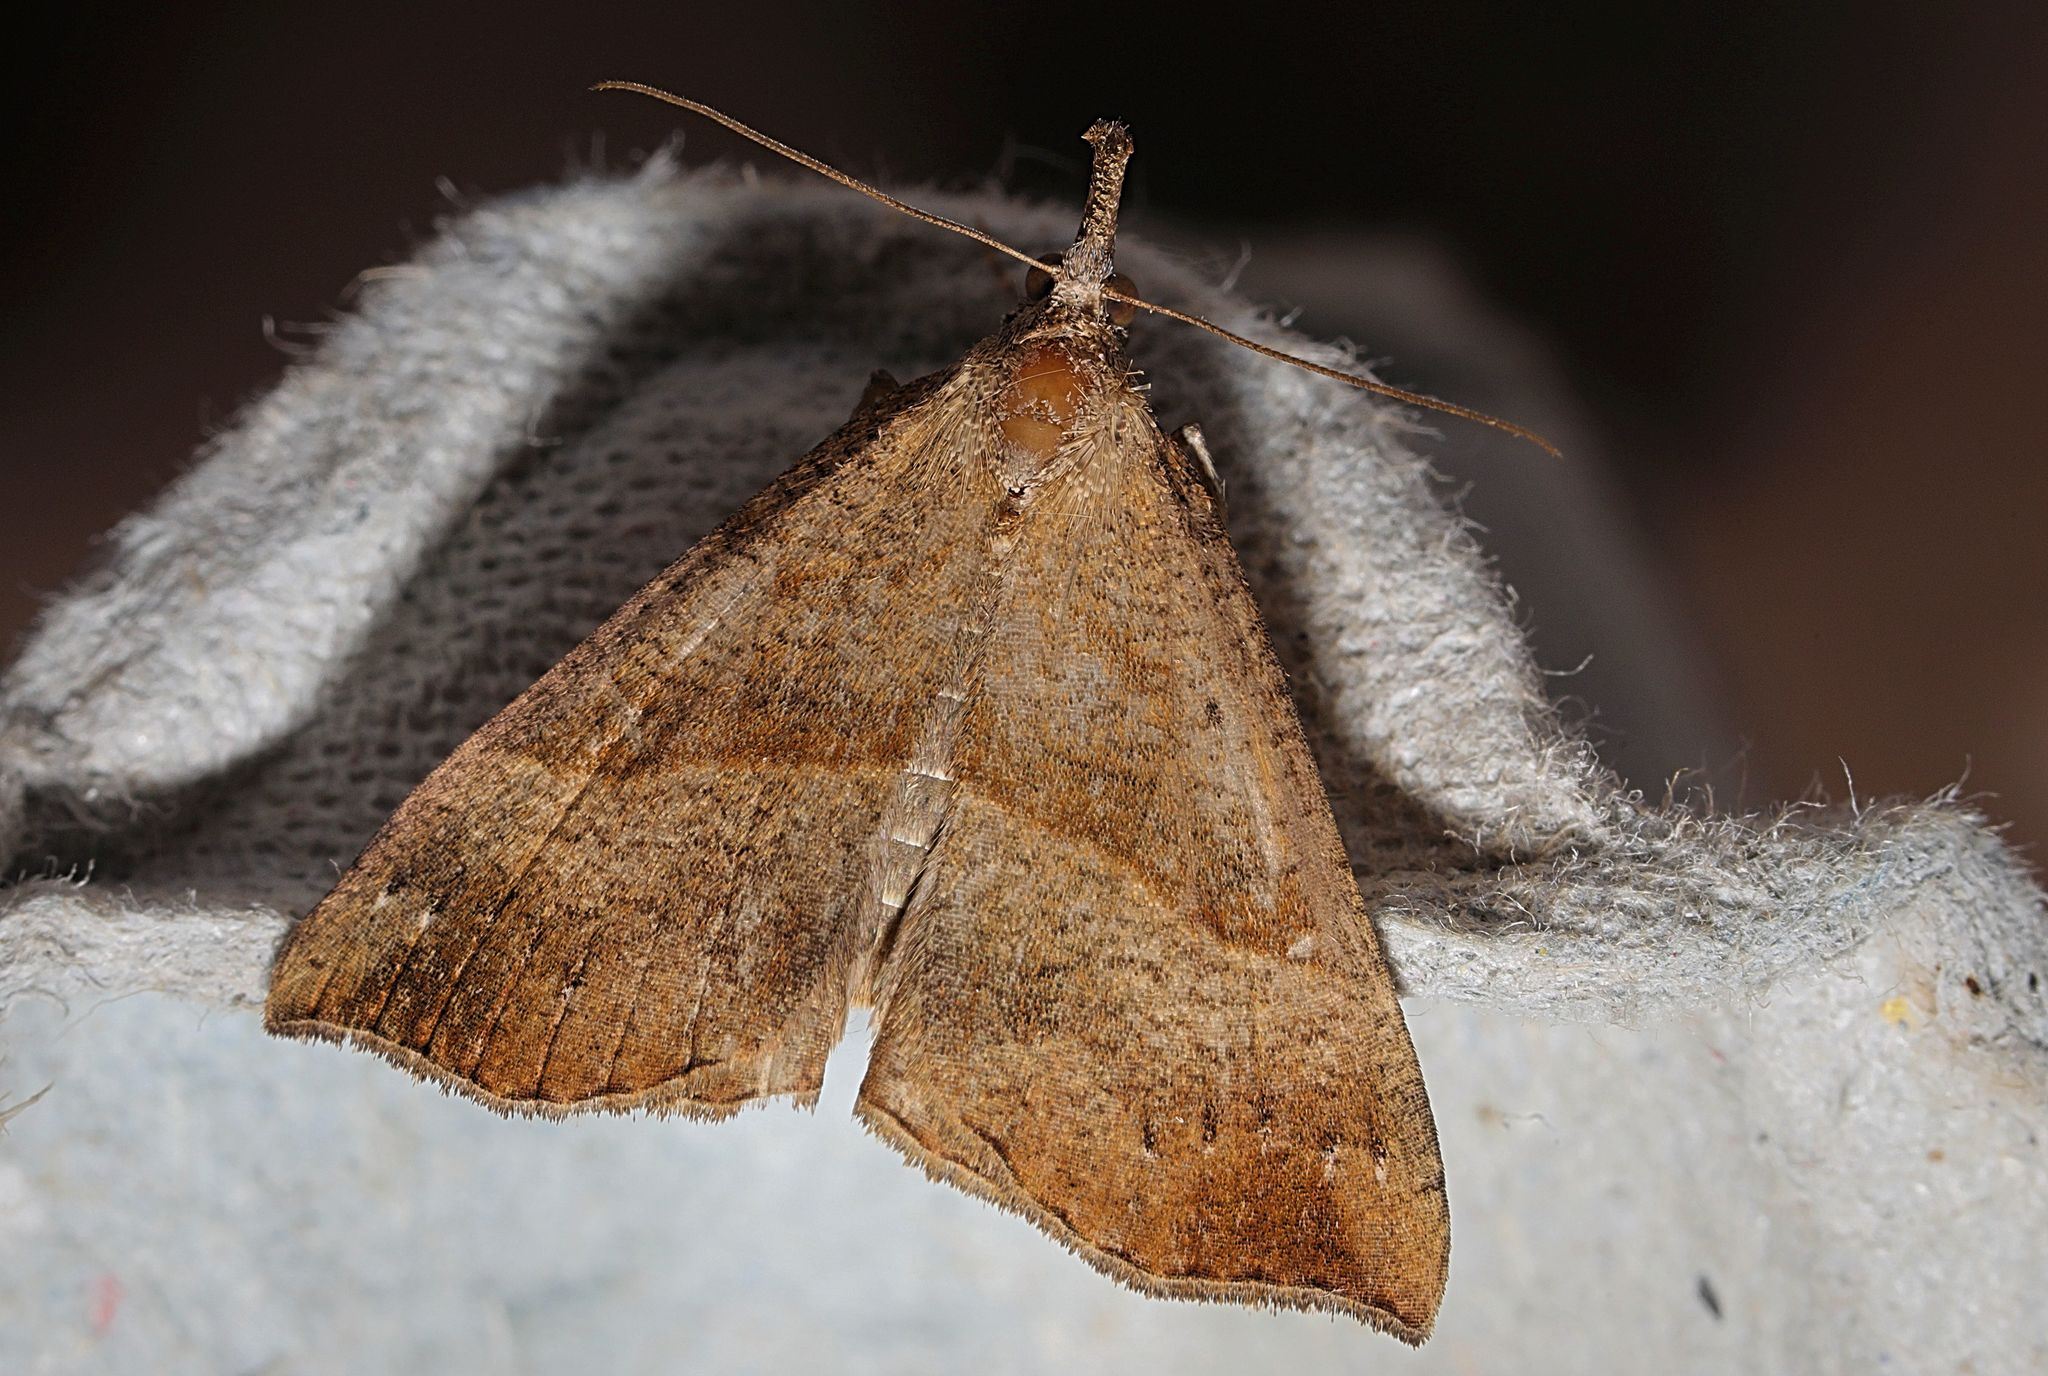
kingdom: Animalia
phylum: Arthropoda
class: Insecta
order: Lepidoptera
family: Erebidae
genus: Hypena
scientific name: Hypena proboscidalis
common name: Snout
